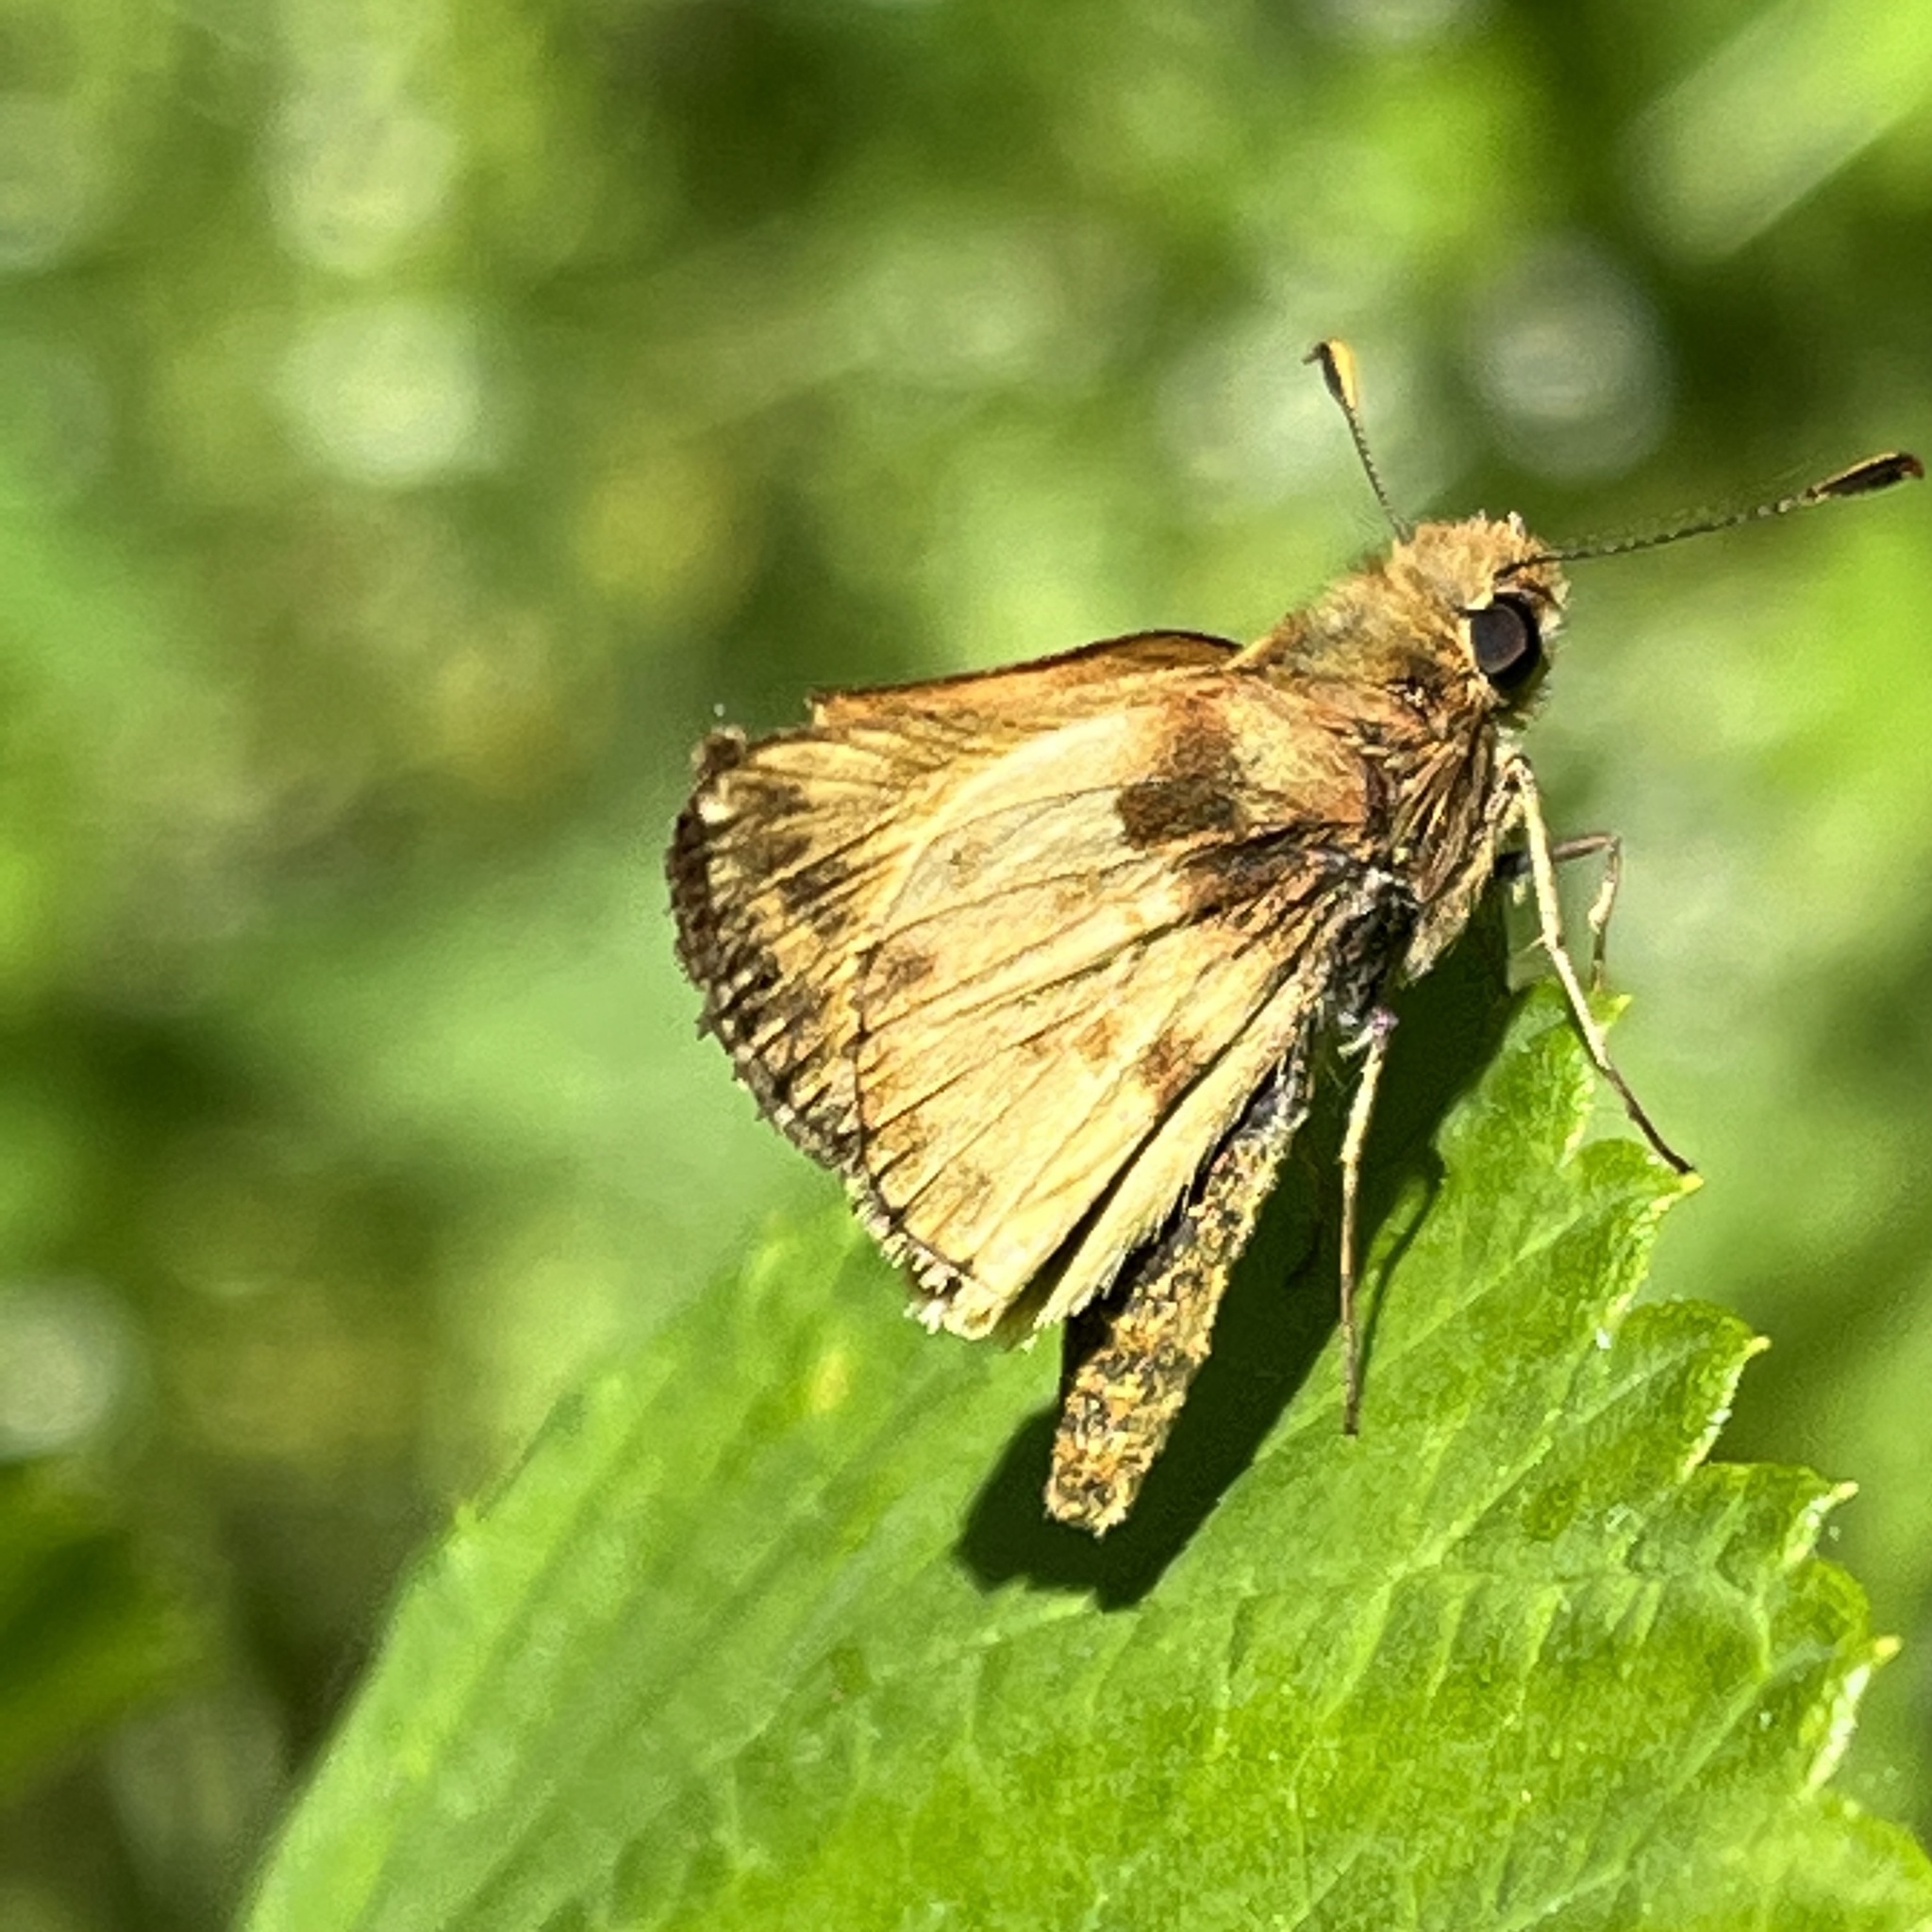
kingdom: Animalia
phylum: Arthropoda
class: Insecta
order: Lepidoptera
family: Hesperiidae
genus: Lon
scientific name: Lon zabulon
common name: Zabulon skipper
